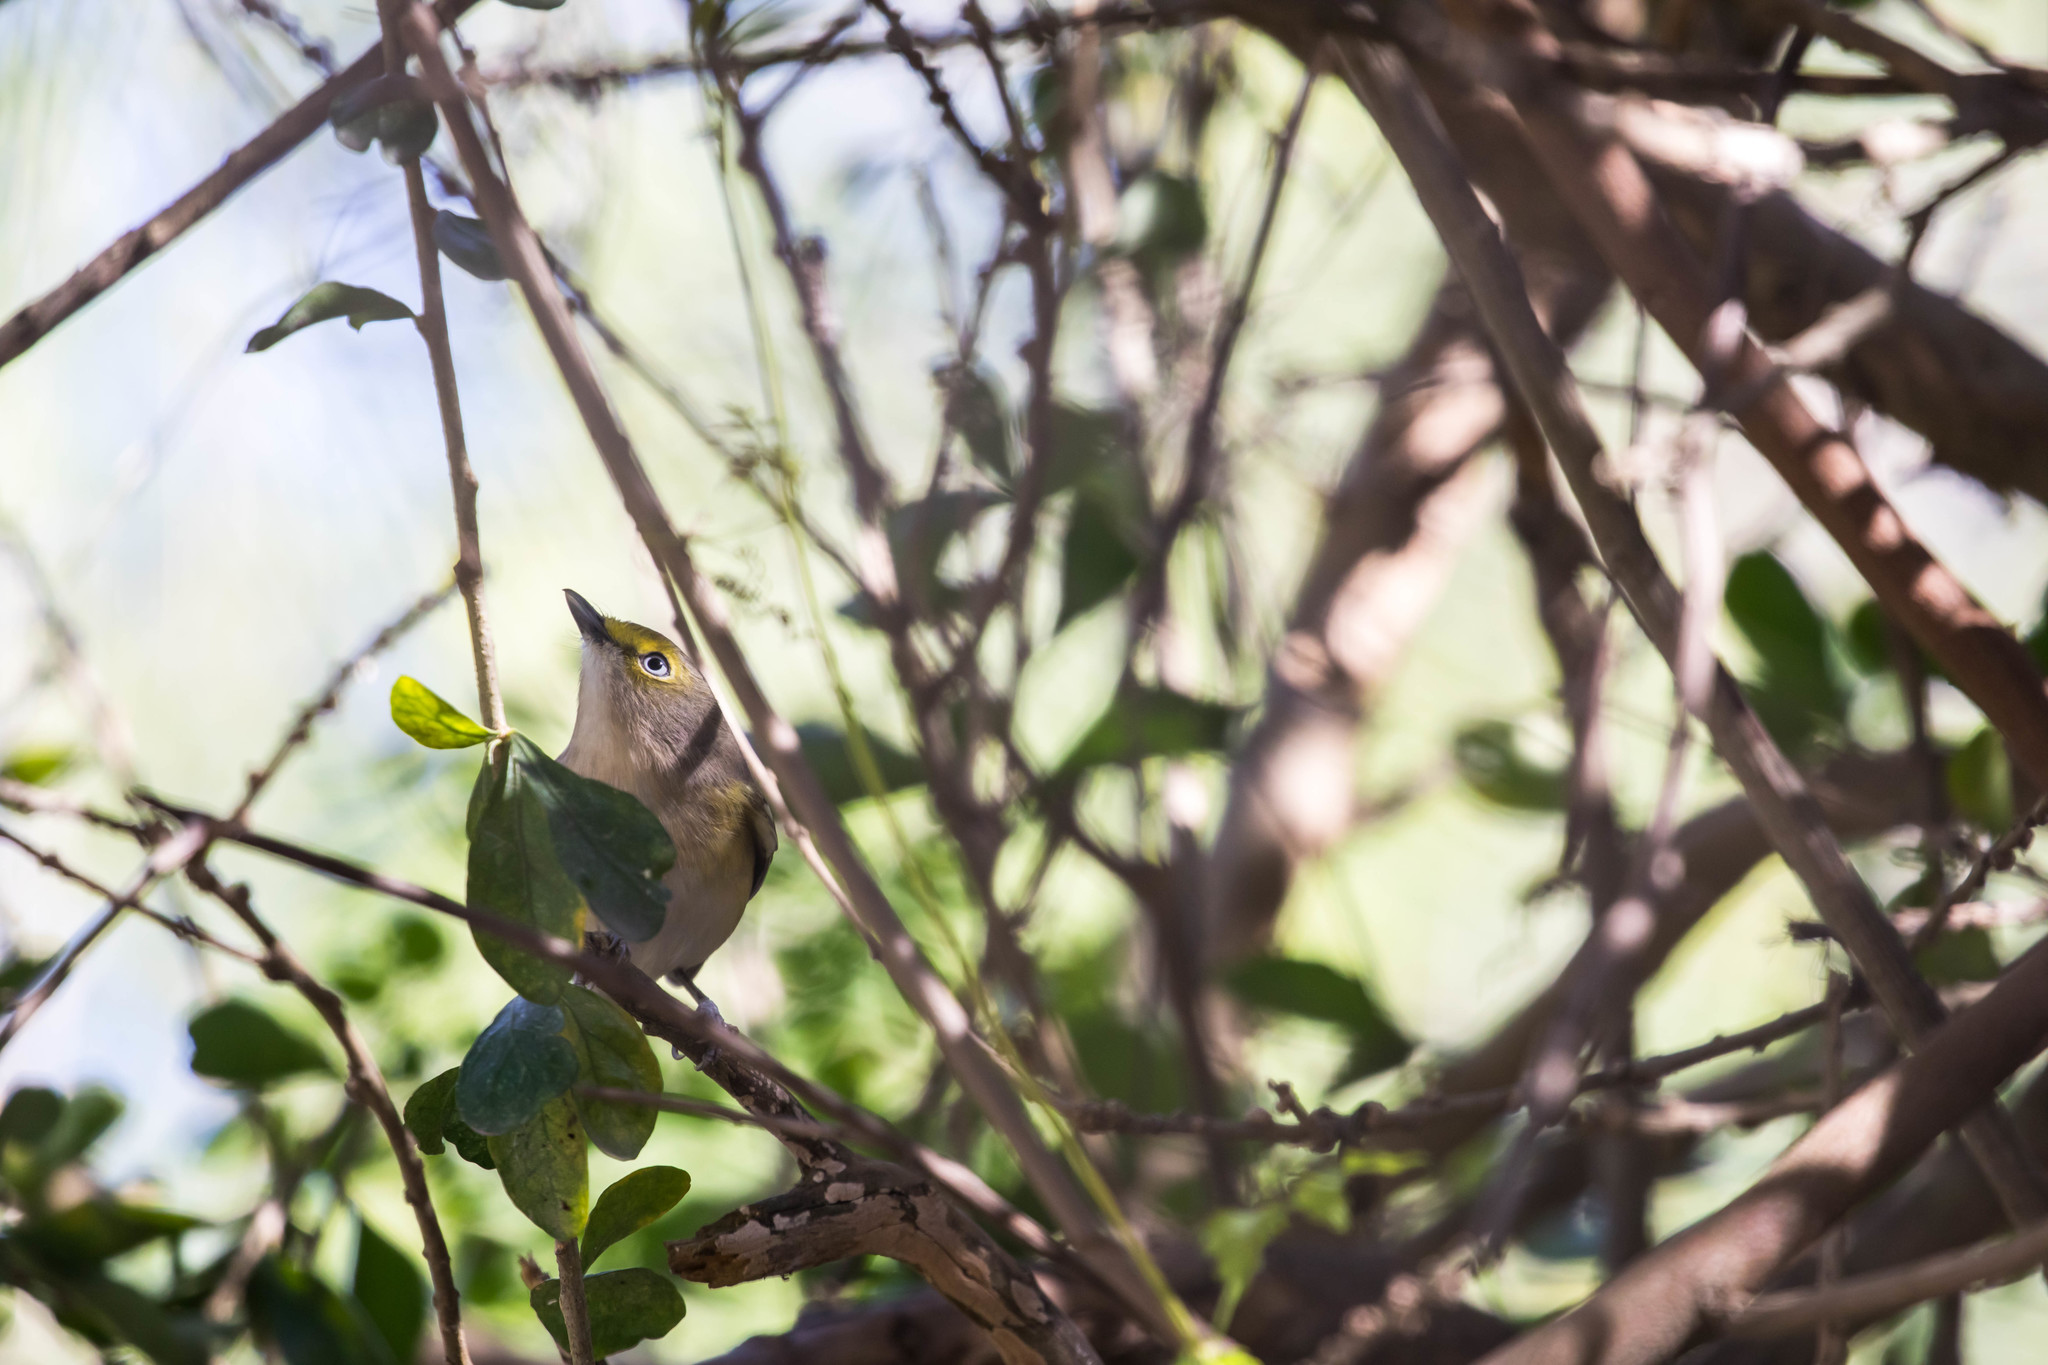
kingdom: Animalia
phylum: Chordata
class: Aves
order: Passeriformes
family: Vireonidae
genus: Vireo
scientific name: Vireo griseus
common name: White-eyed vireo
